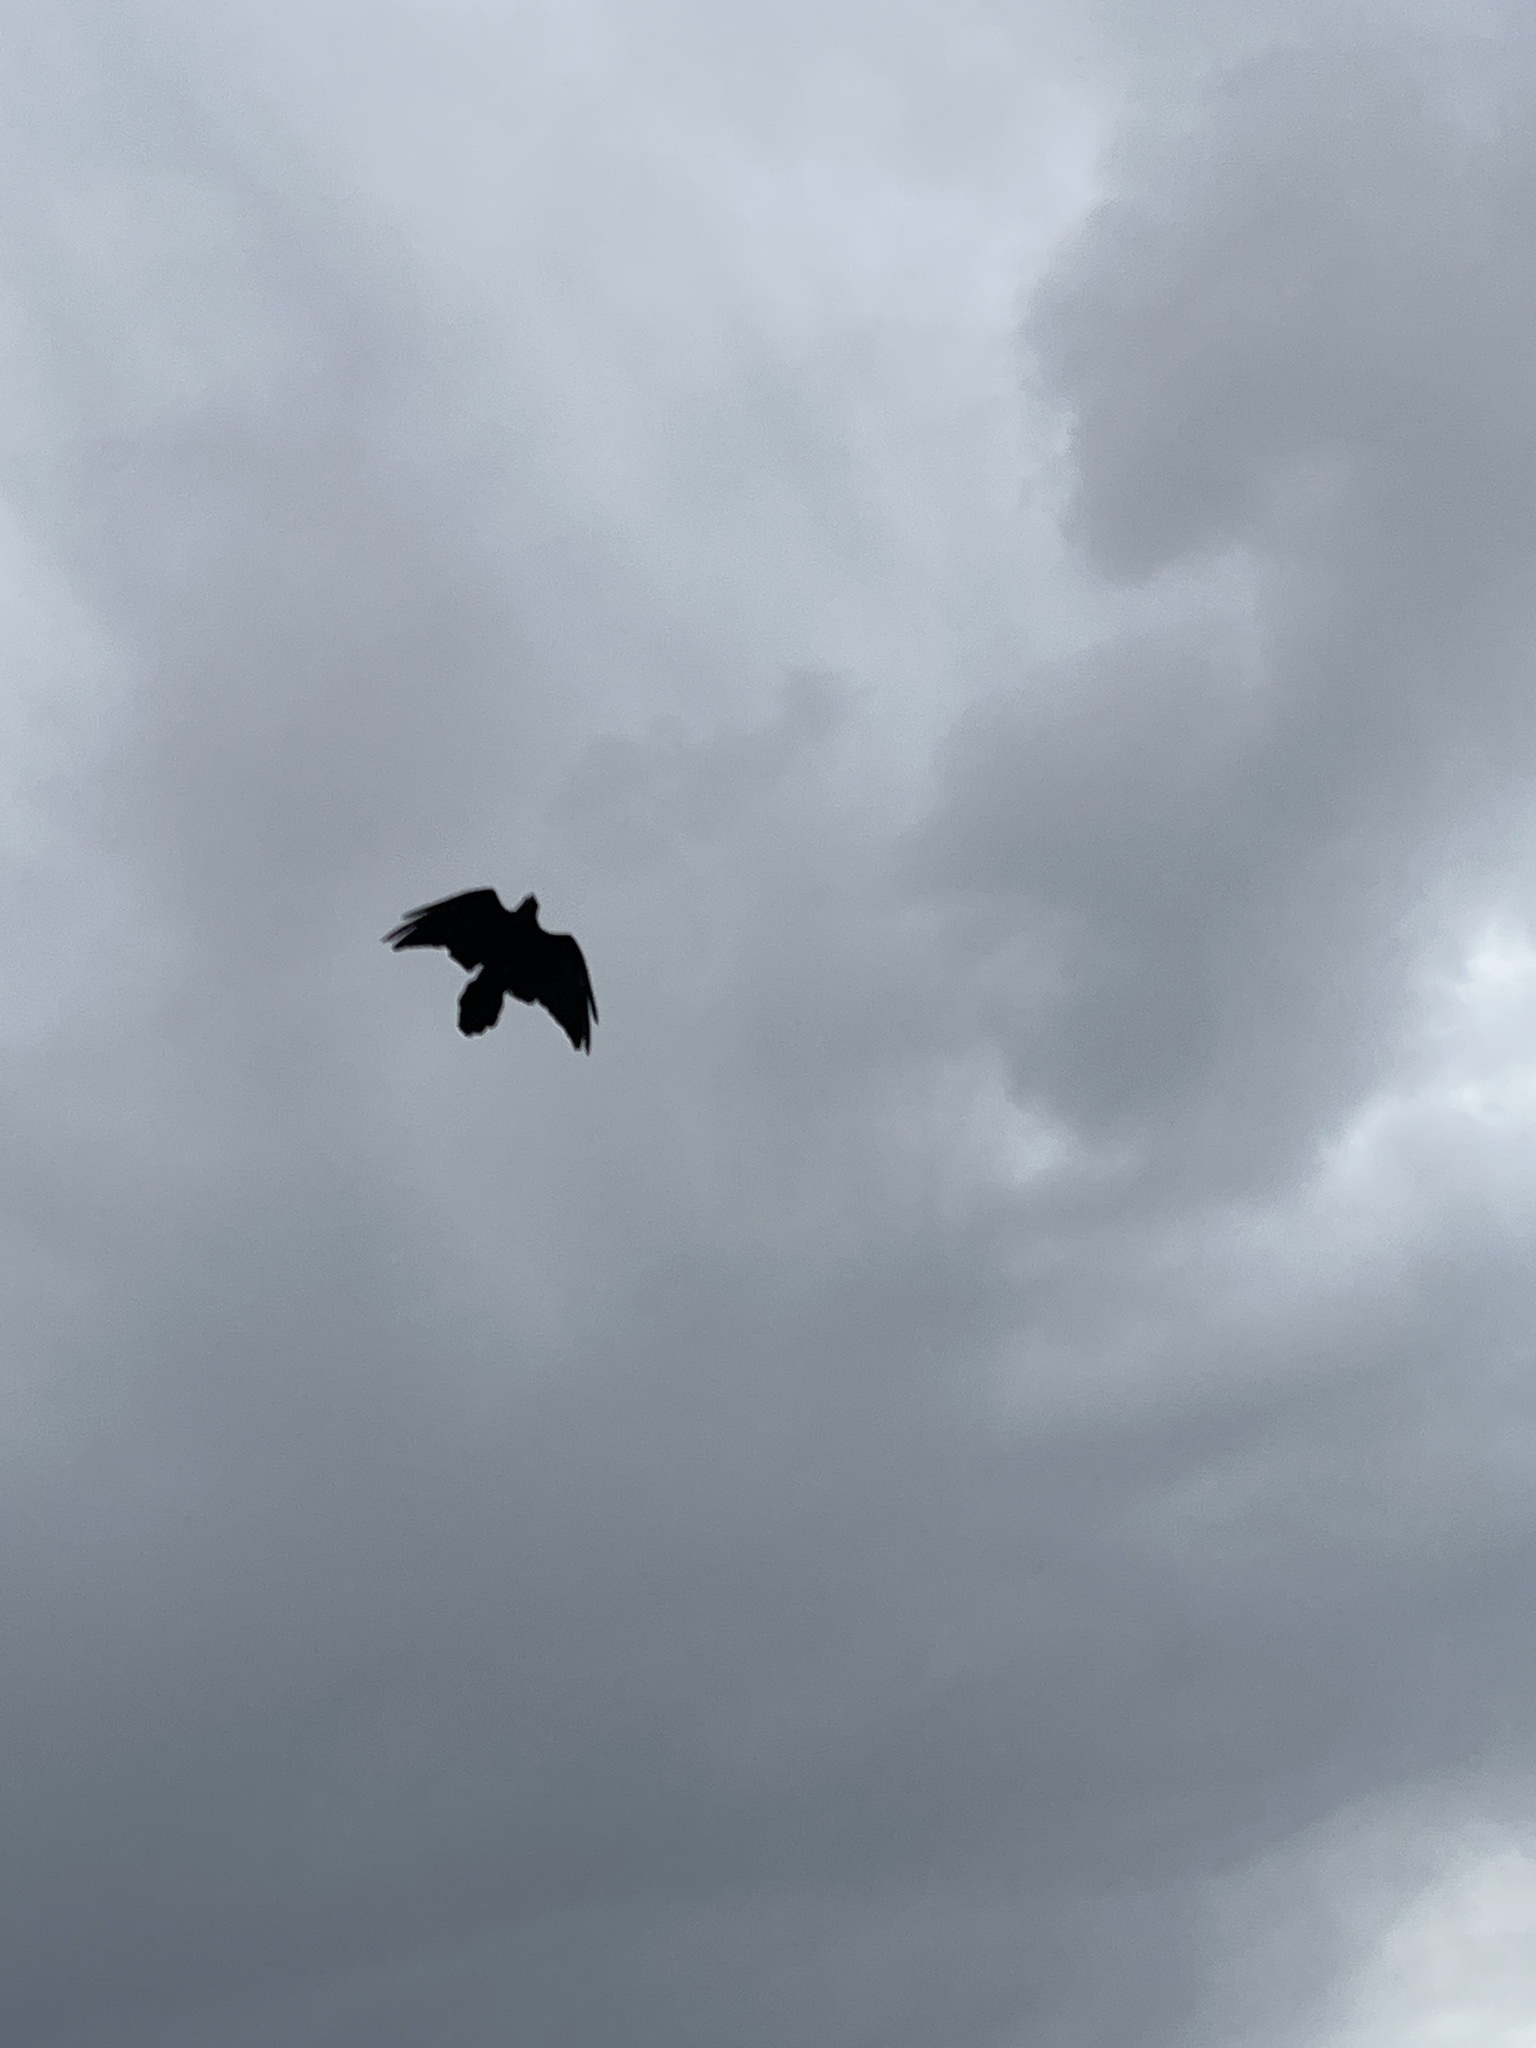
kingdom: Animalia
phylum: Chordata
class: Aves
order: Passeriformes
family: Corvidae
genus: Corvus
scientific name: Corvus corax
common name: Common raven
